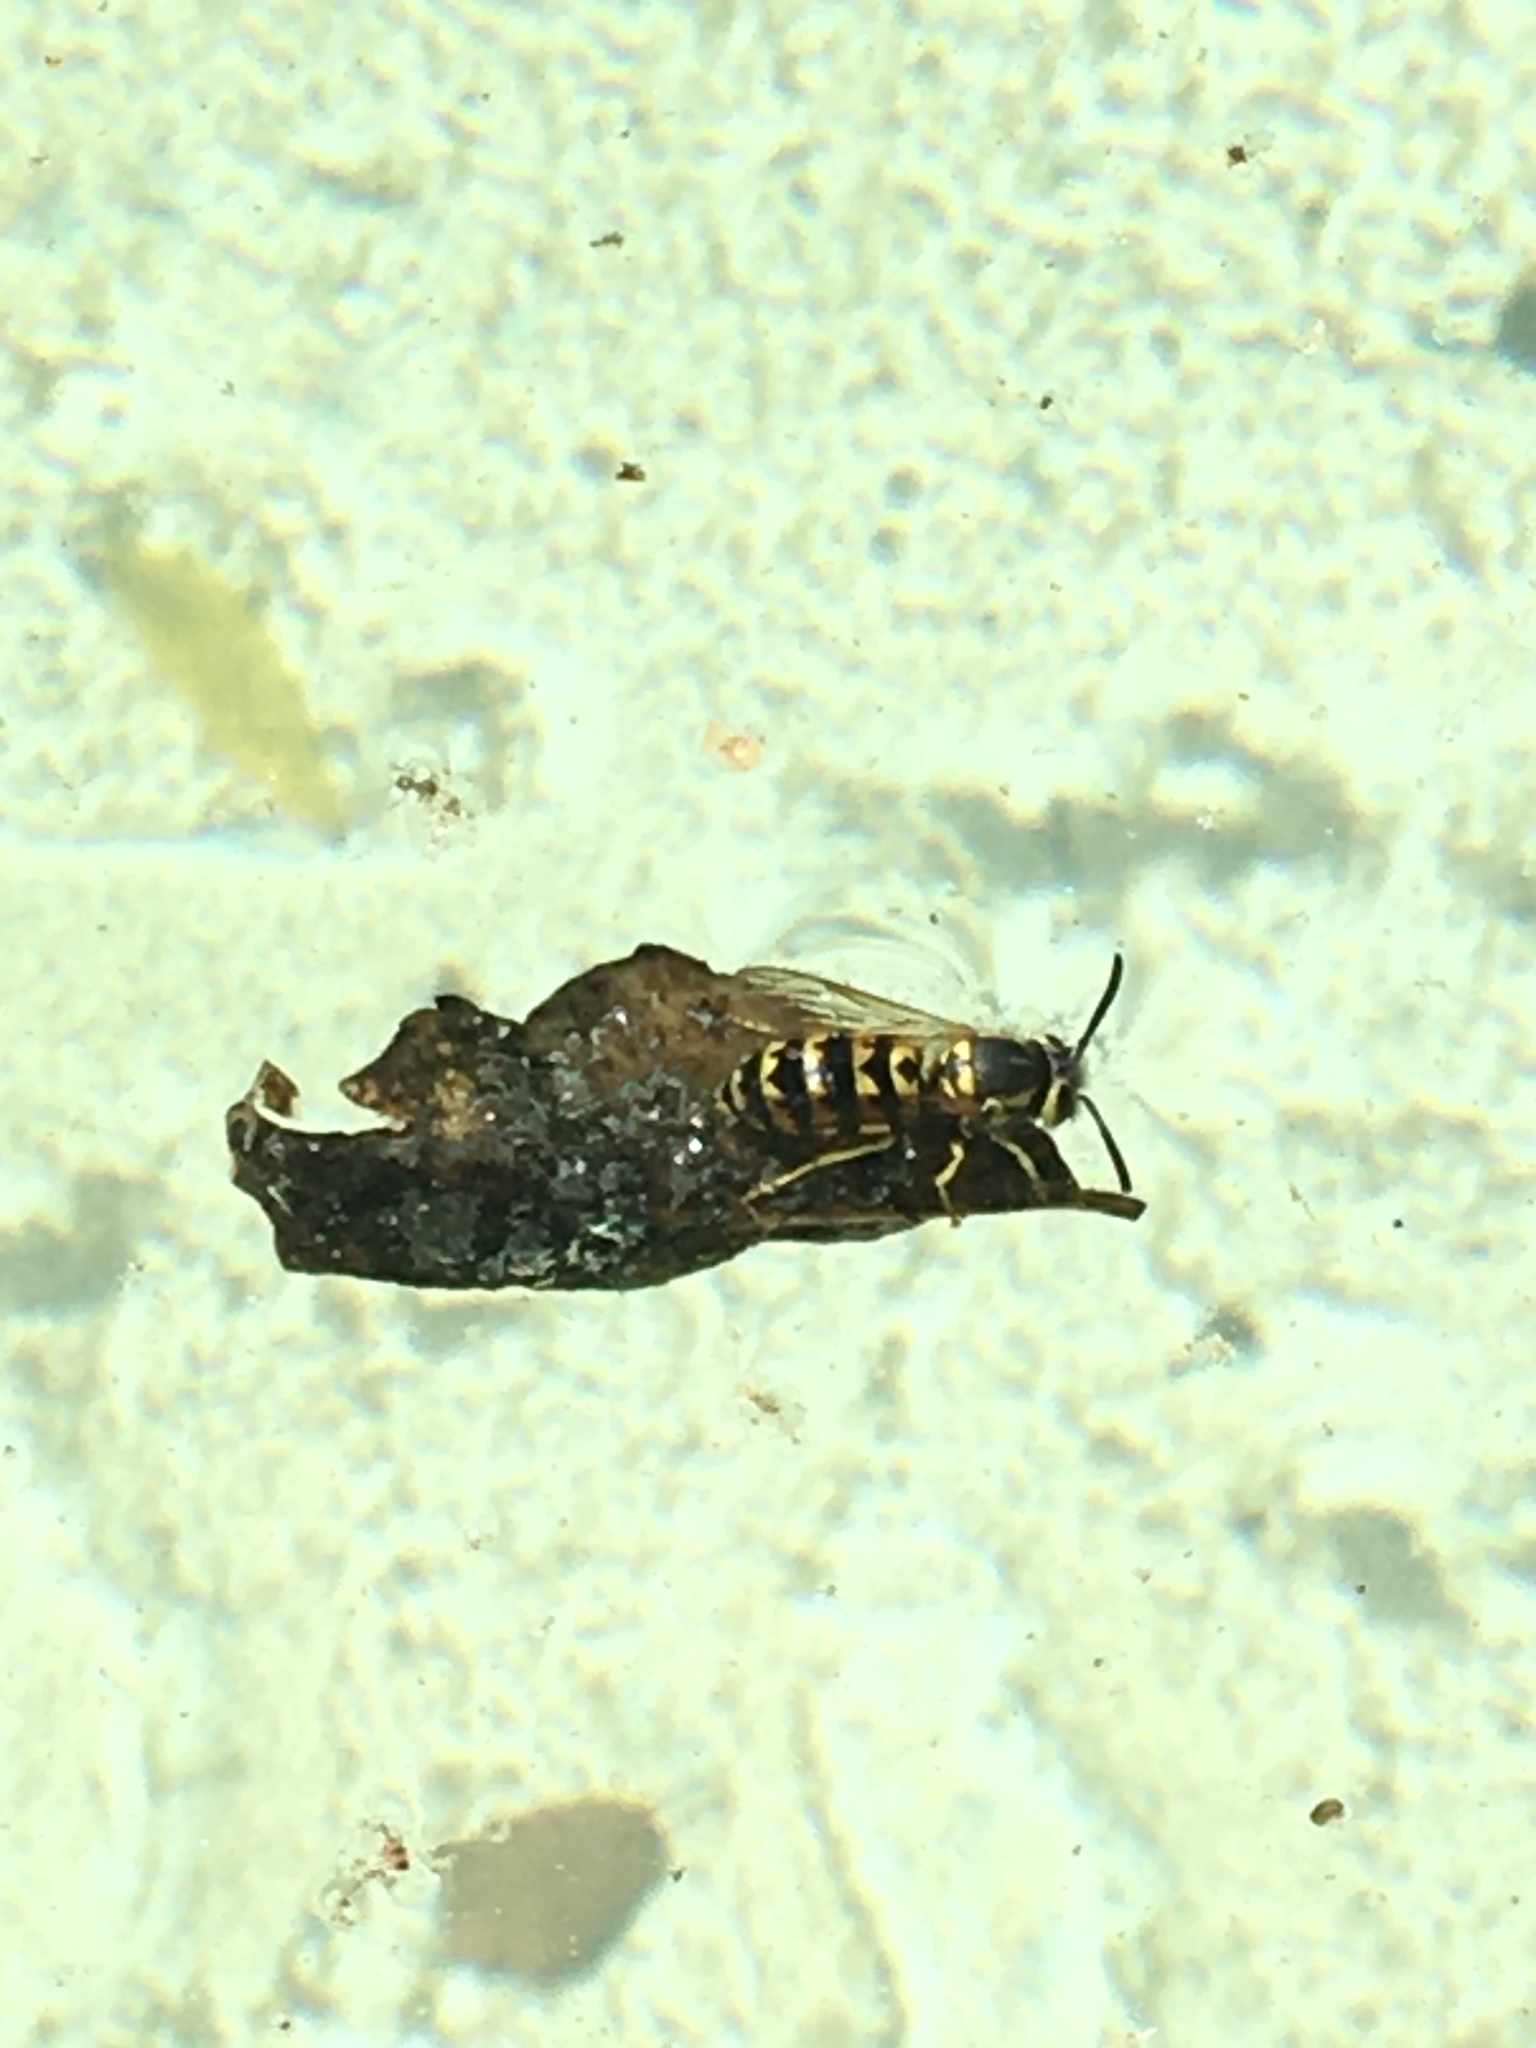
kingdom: Animalia
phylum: Arthropoda
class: Insecta
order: Hymenoptera
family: Vespidae
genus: Vespula
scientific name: Vespula pensylvanica
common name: Western yellowjacket
